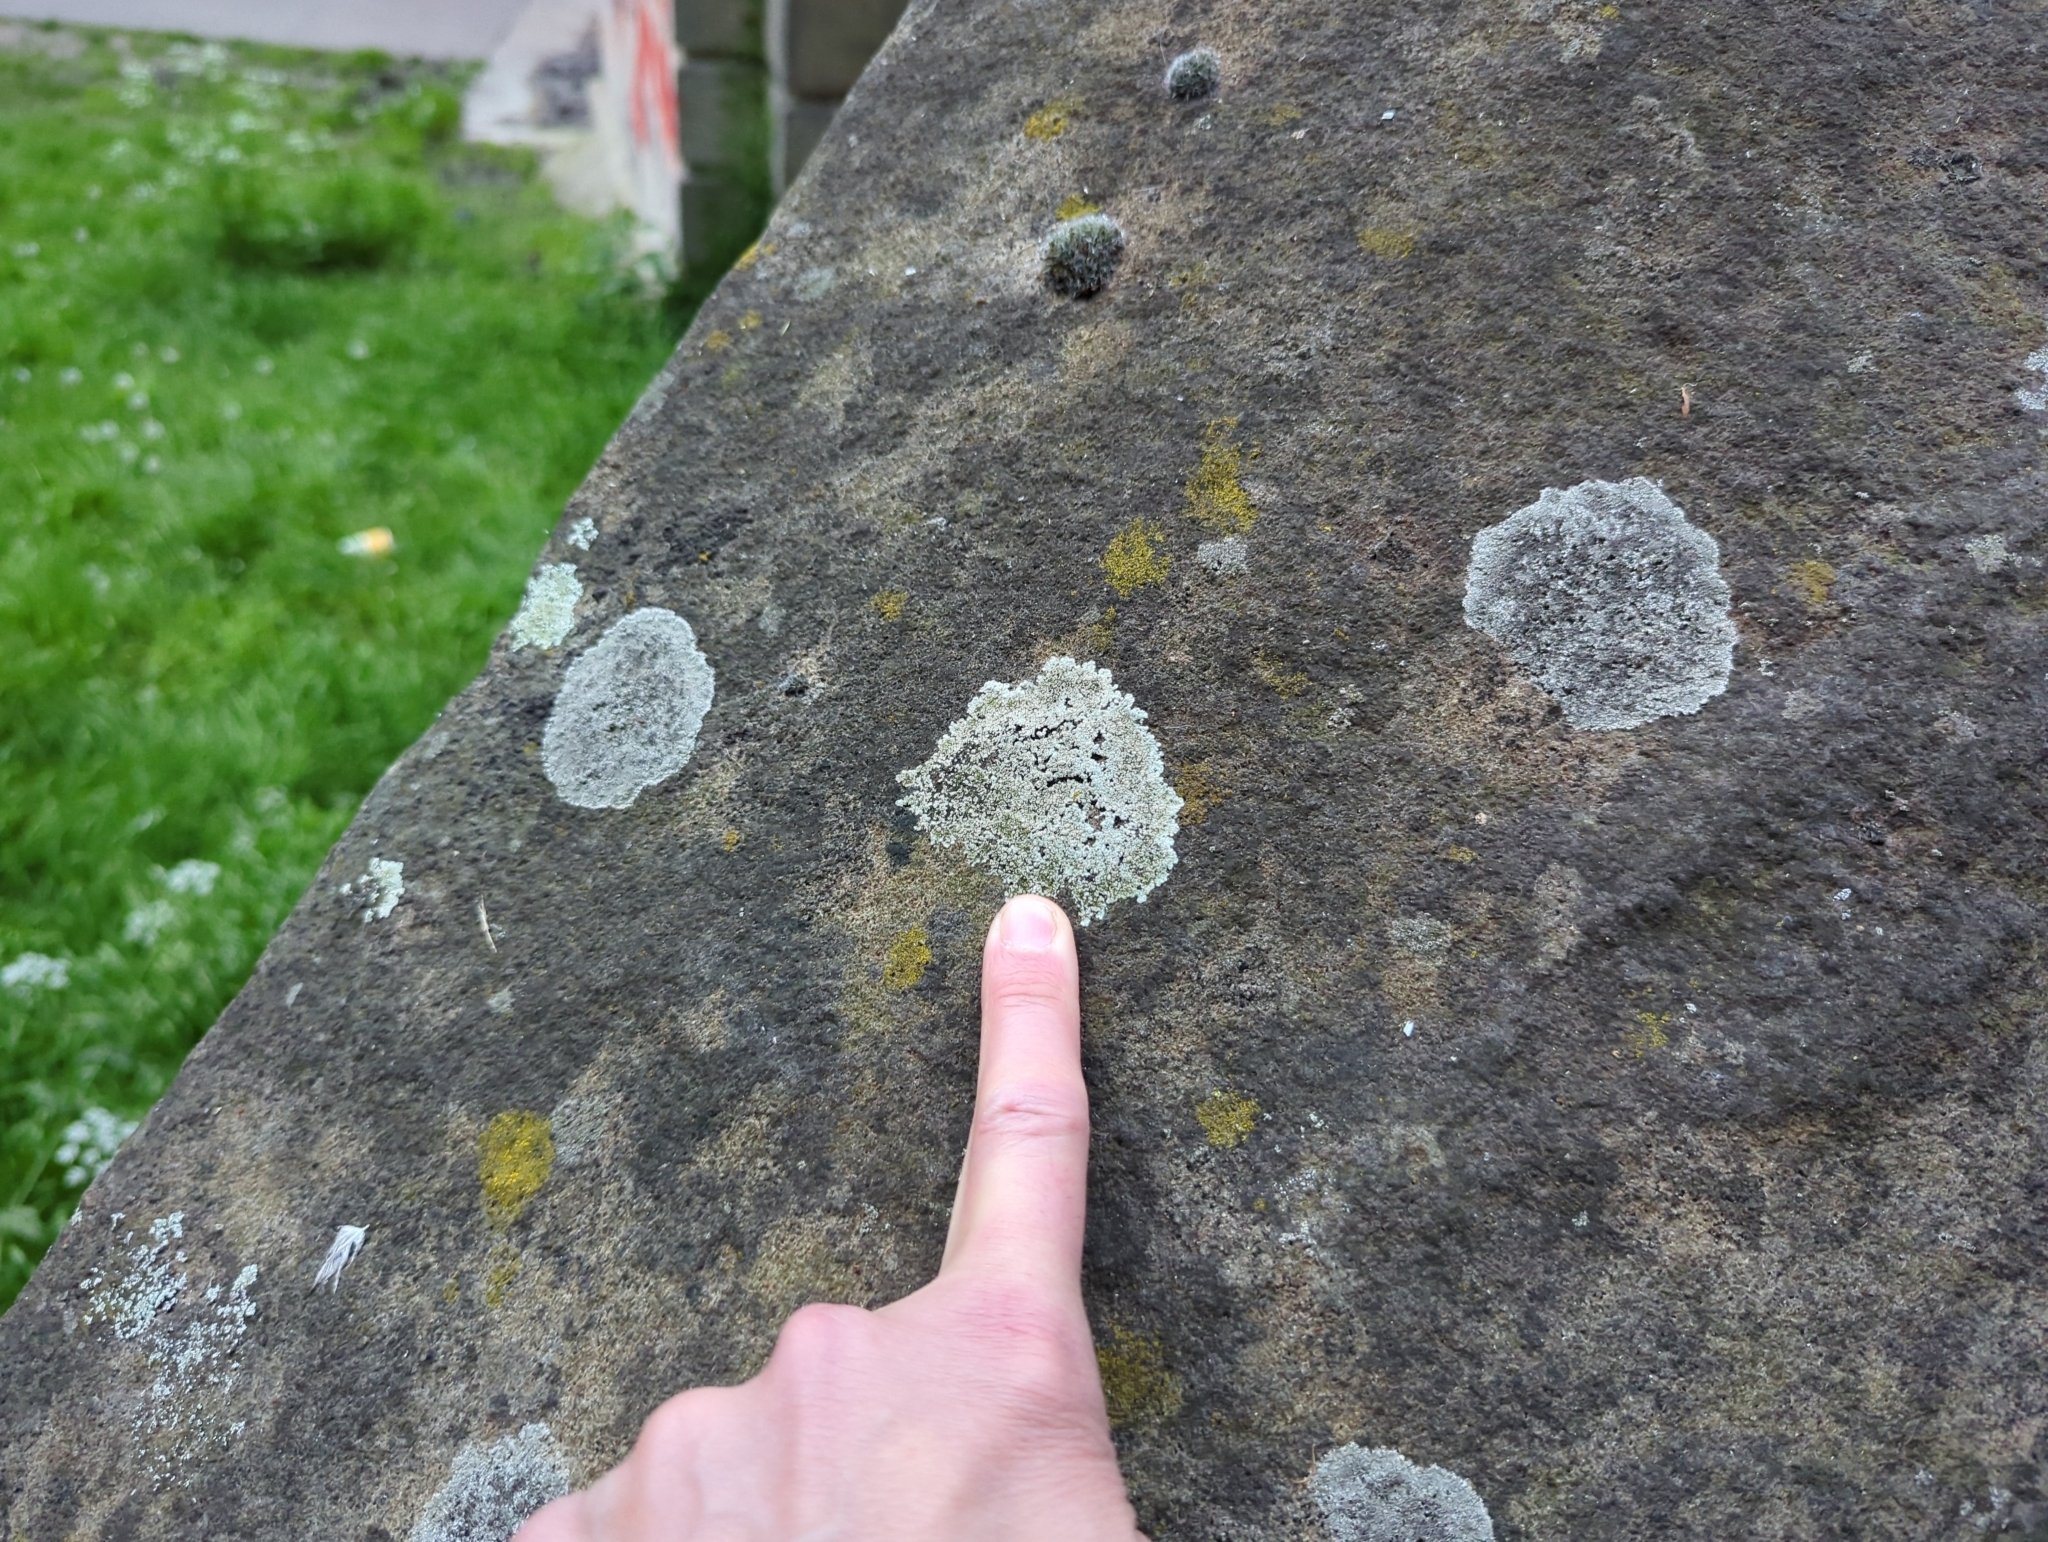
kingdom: Fungi
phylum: Ascomycota
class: Lecanoromycetes
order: Lecanorales
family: Lecanoraceae
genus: Protoparmeliopsis
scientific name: Protoparmeliopsis muralis
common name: Stonewall rim lichen
